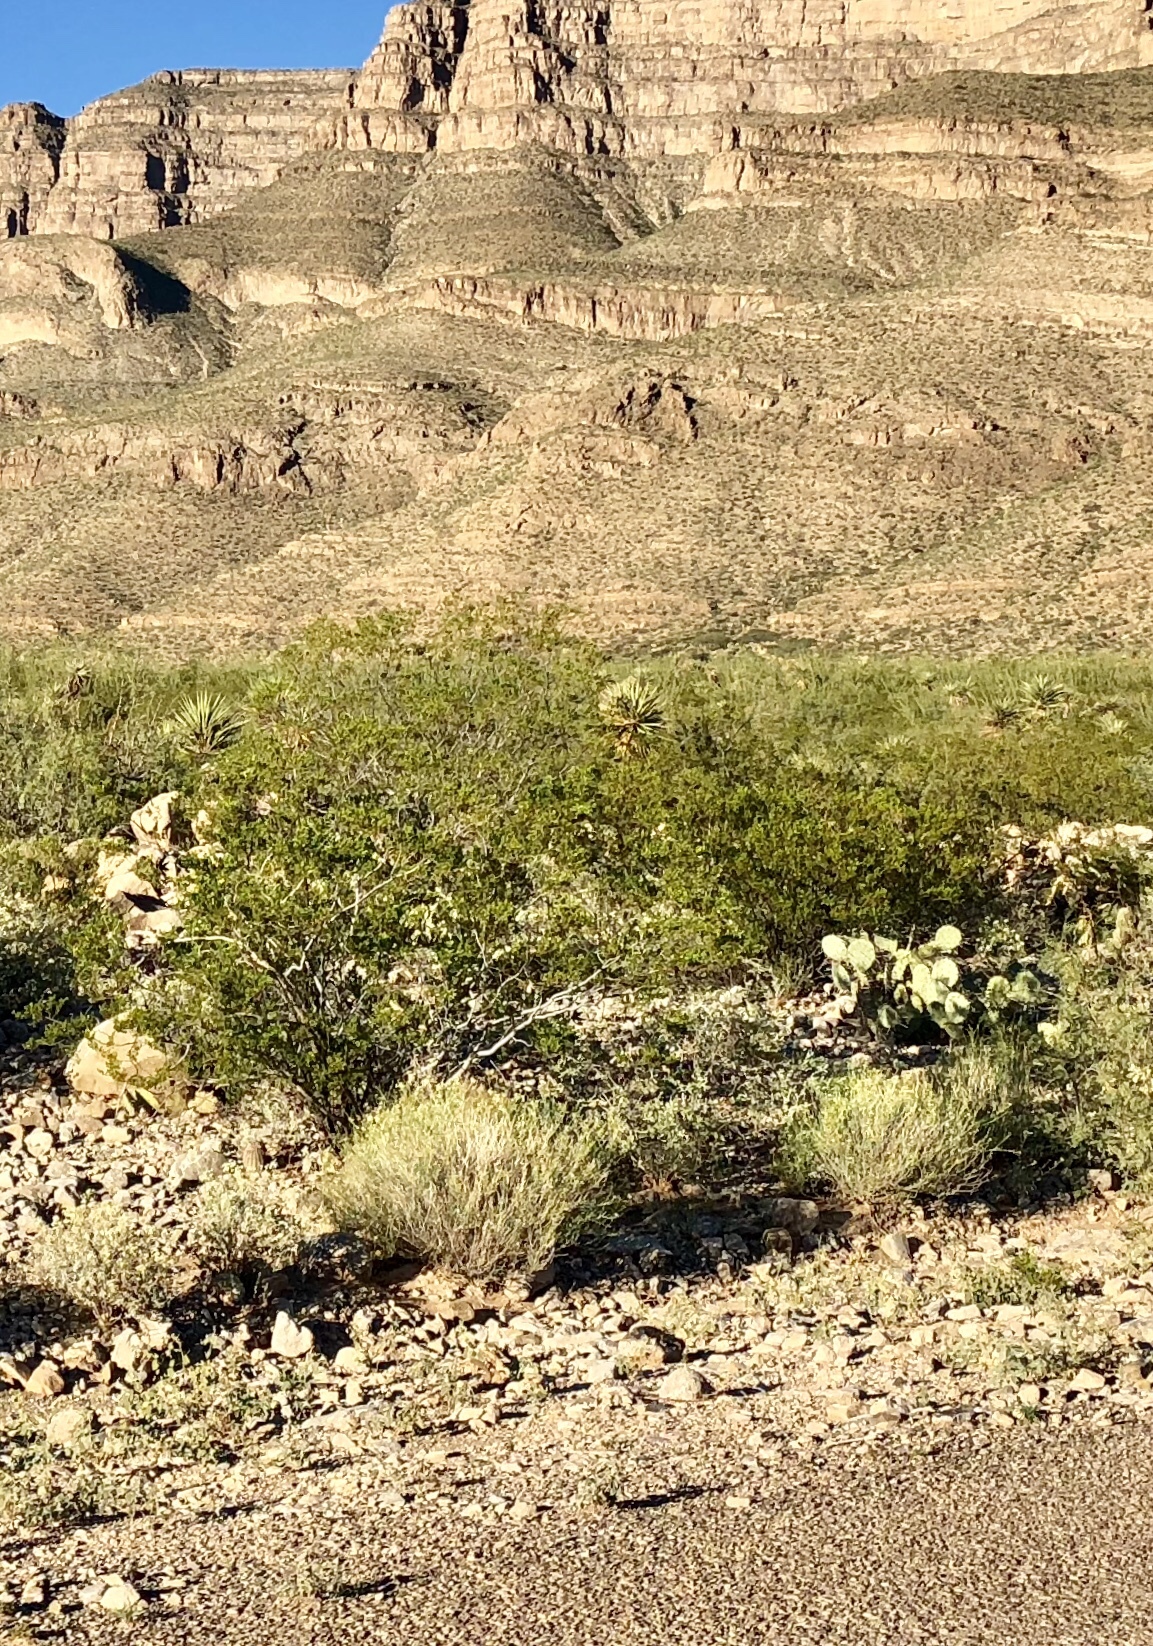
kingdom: Plantae
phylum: Tracheophyta
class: Magnoliopsida
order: Zygophyllales
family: Zygophyllaceae
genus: Larrea
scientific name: Larrea tridentata
